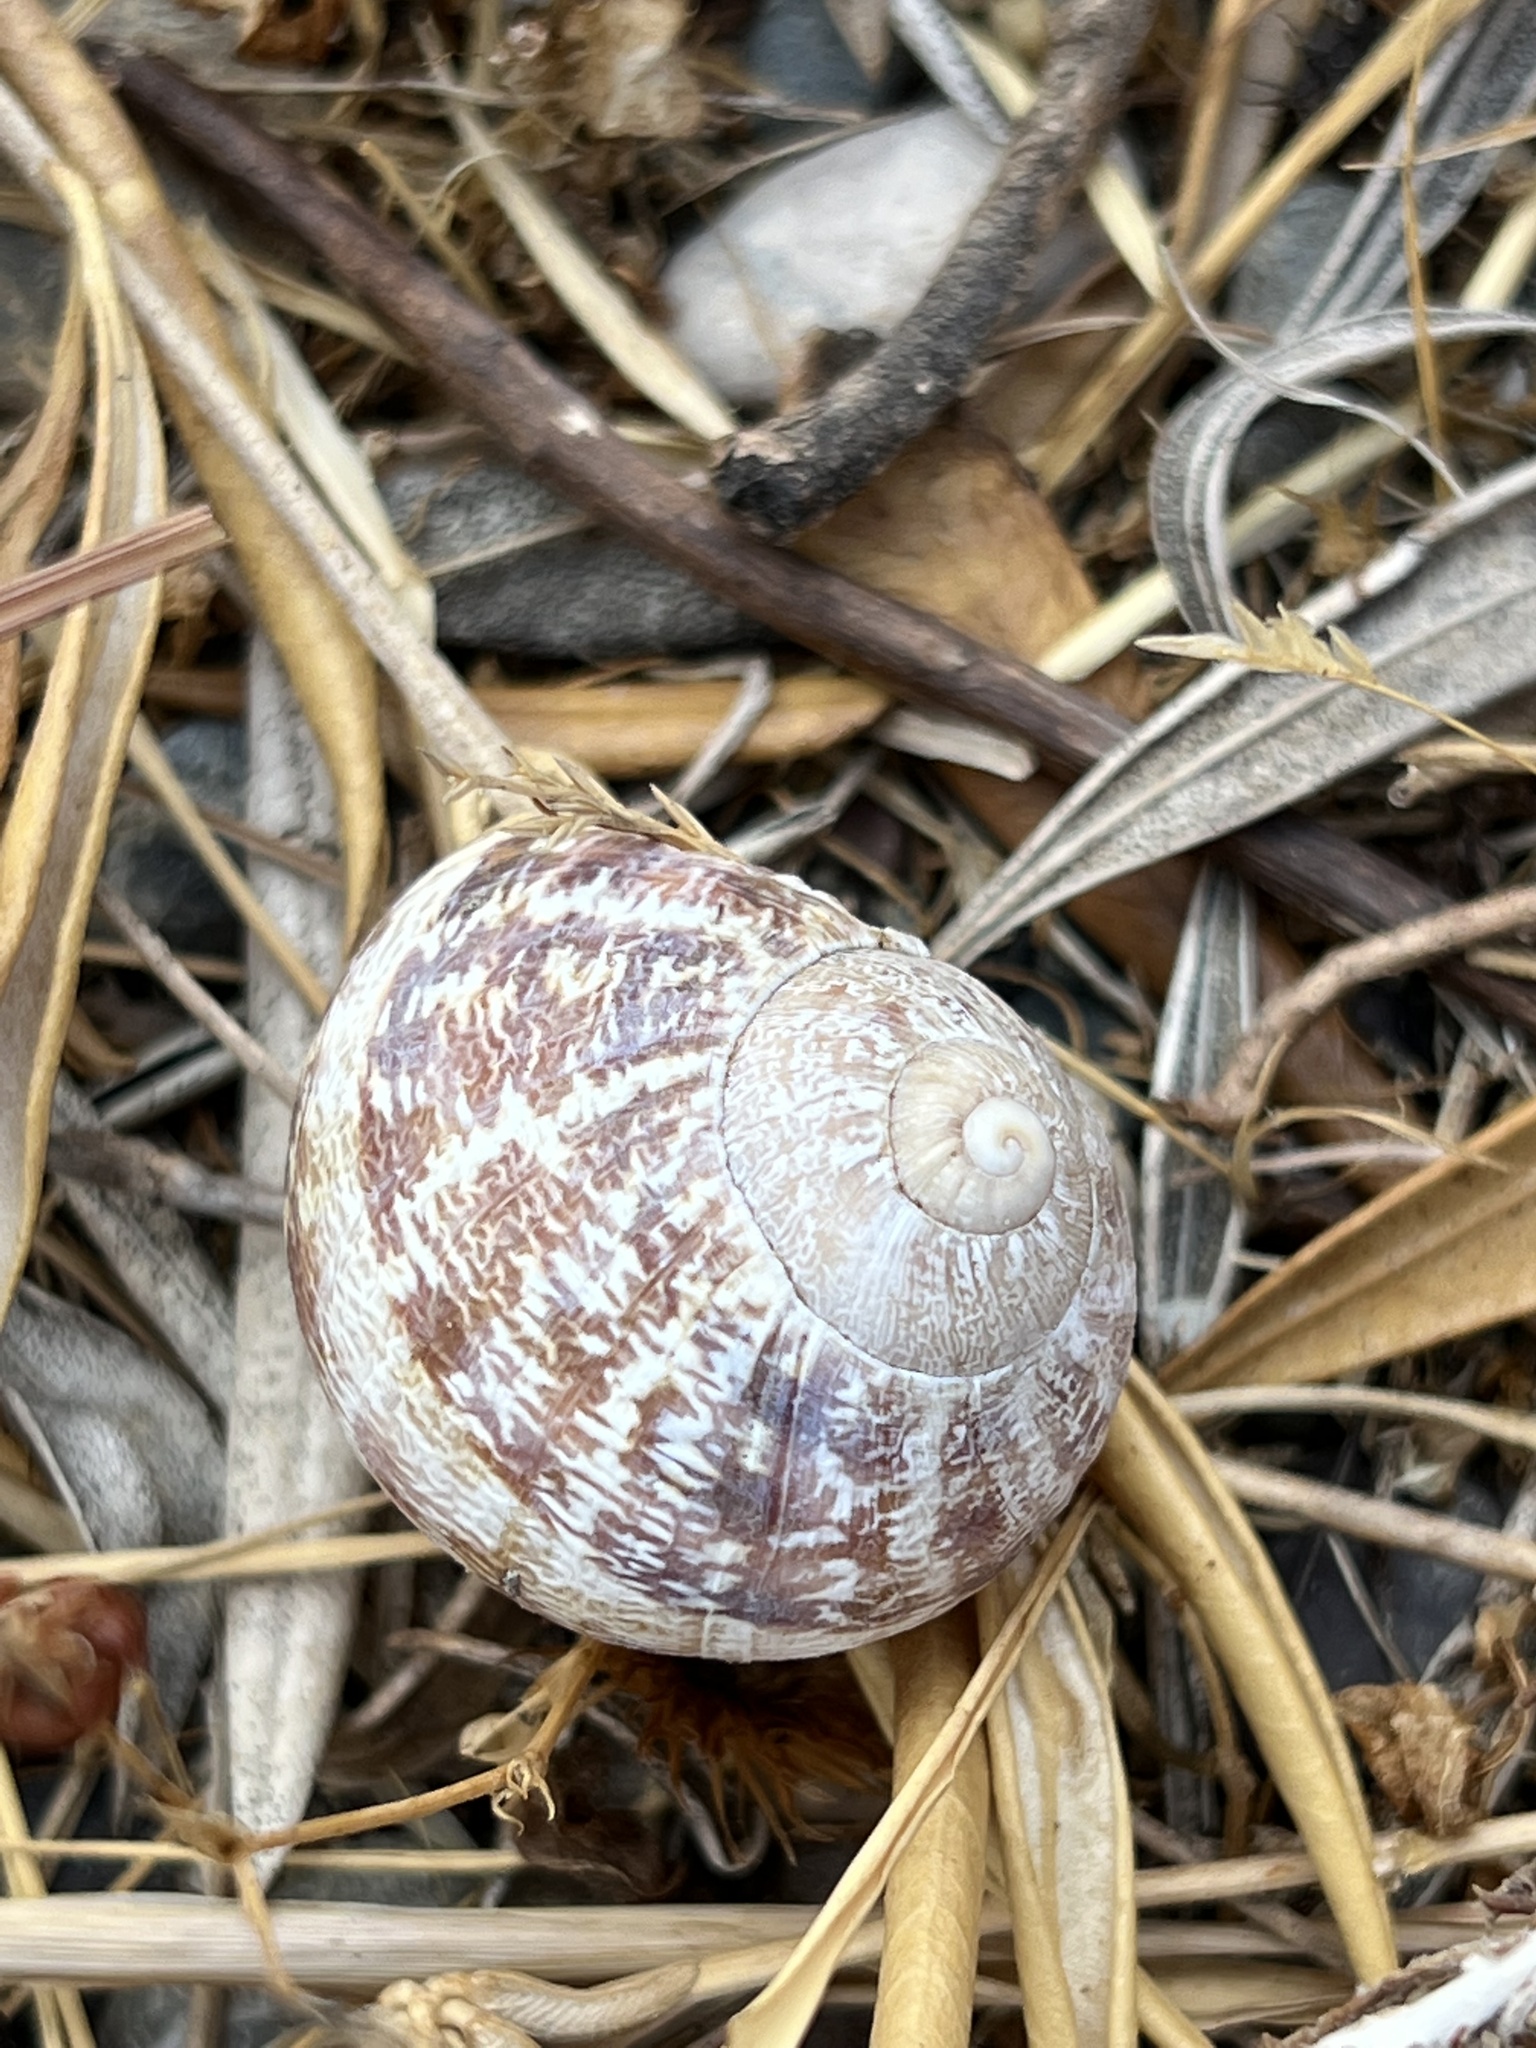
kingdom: Animalia
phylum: Mollusca
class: Gastropoda
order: Stylommatophora
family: Helicidae
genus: Cornu
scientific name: Cornu aspersum
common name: Brown garden snail
